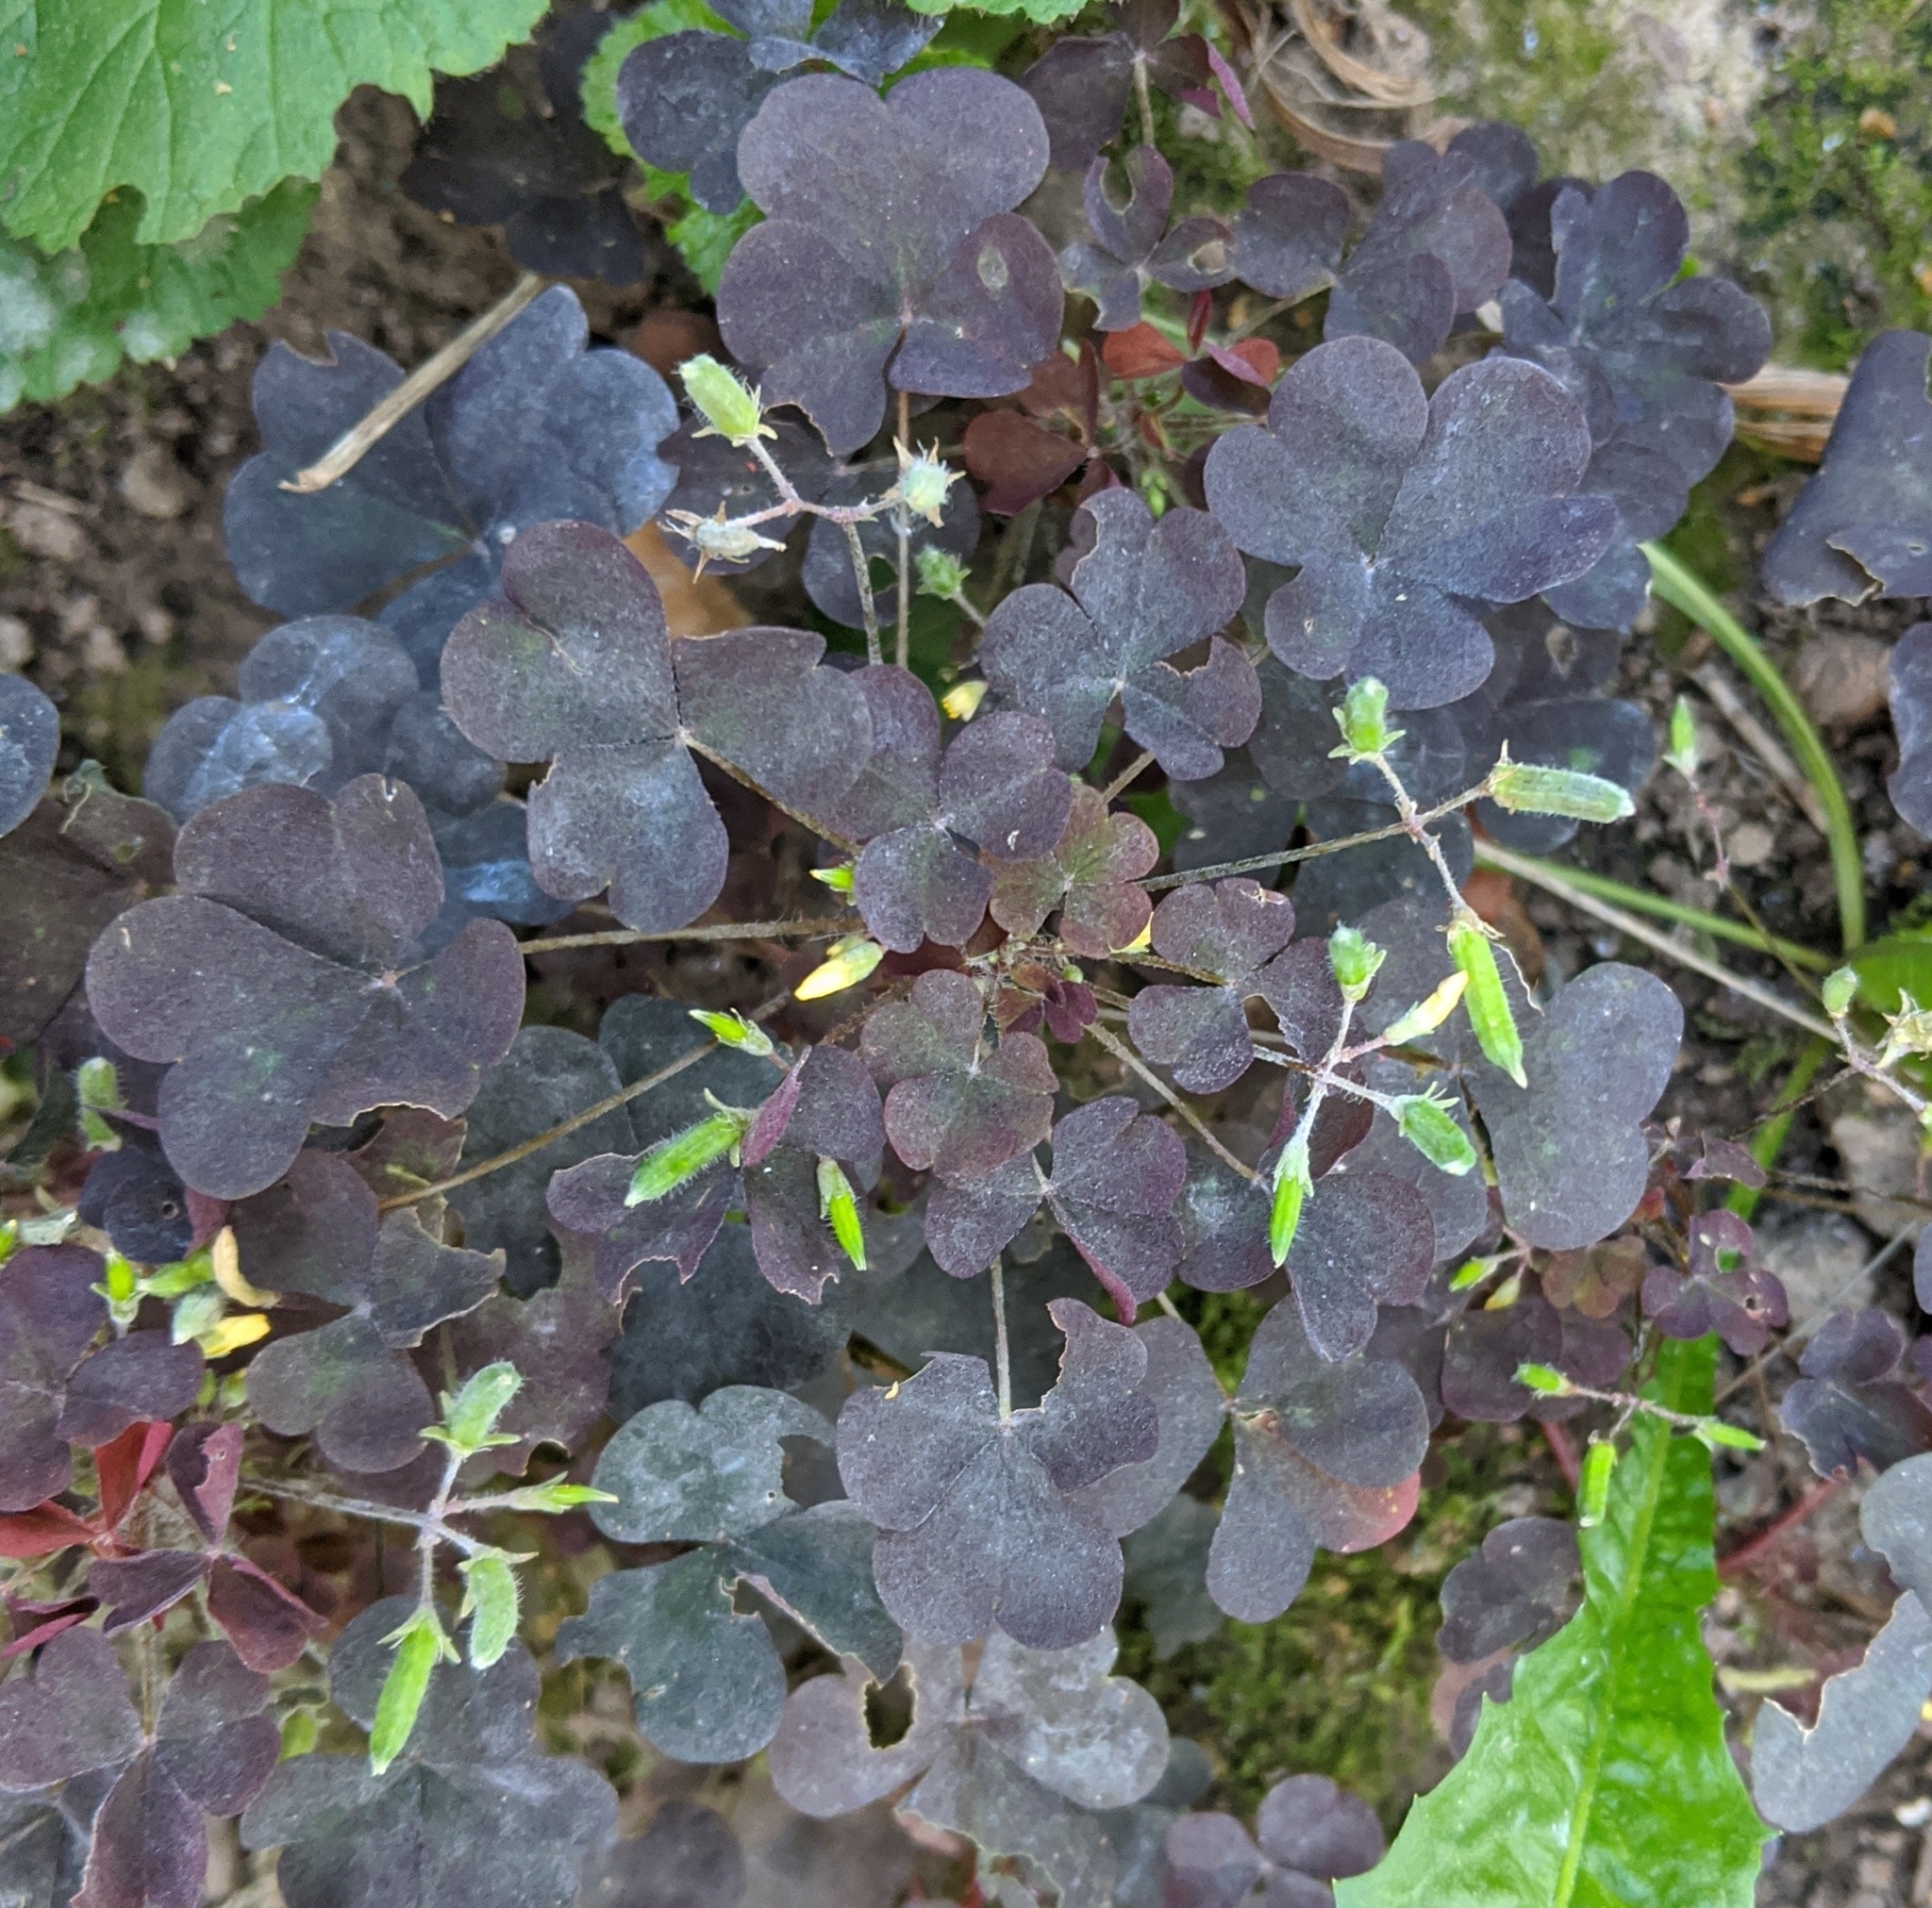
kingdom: Plantae
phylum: Tracheophyta
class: Magnoliopsida
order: Oxalidales
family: Oxalidaceae
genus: Oxalis
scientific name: Oxalis stricta
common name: Upright yellow-sorrel
